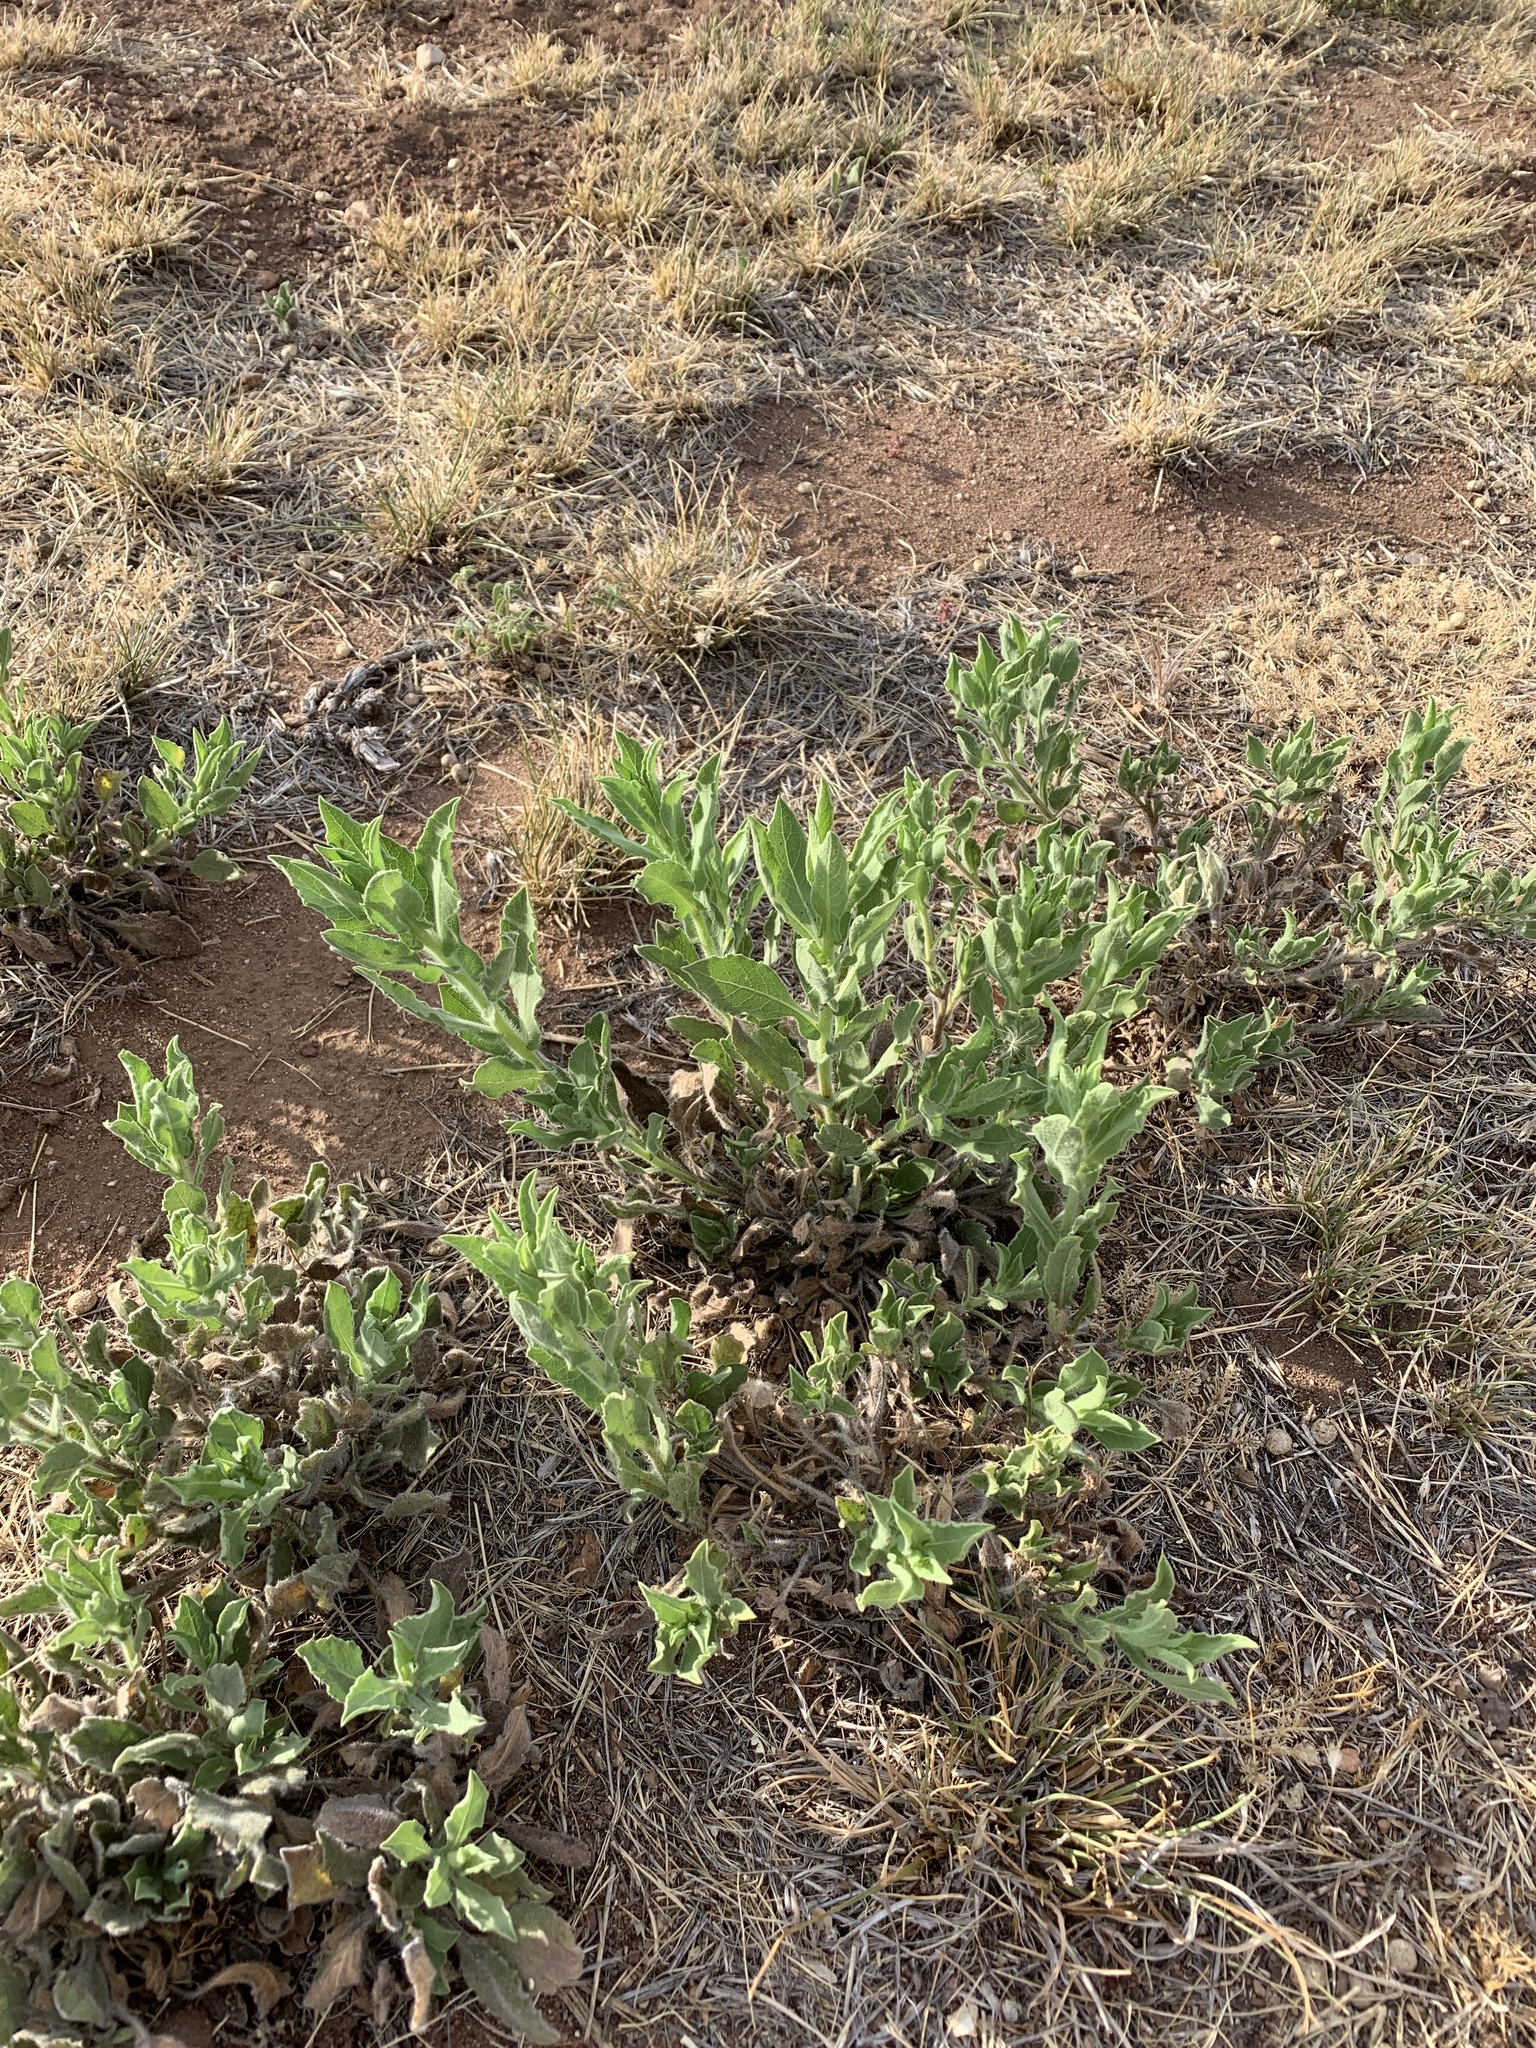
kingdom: Plantae
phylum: Tracheophyta
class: Magnoliopsida
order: Asterales
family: Asteraceae
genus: Heterotheca
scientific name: Heterotheca grandiflora
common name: Telegraphweed
